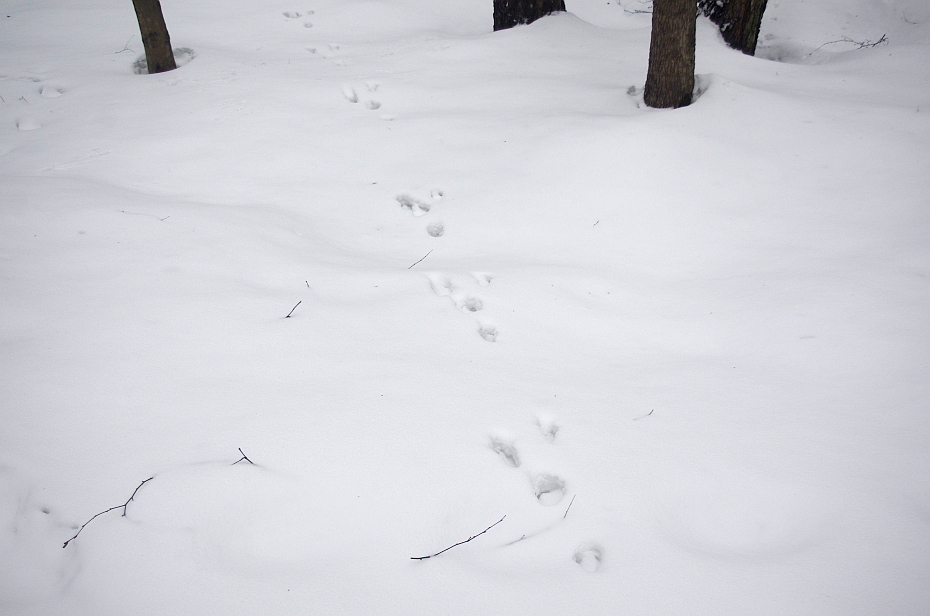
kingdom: Animalia
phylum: Chordata
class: Mammalia
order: Lagomorpha
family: Leporidae
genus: Lepus
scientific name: Lepus europaeus
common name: European hare
